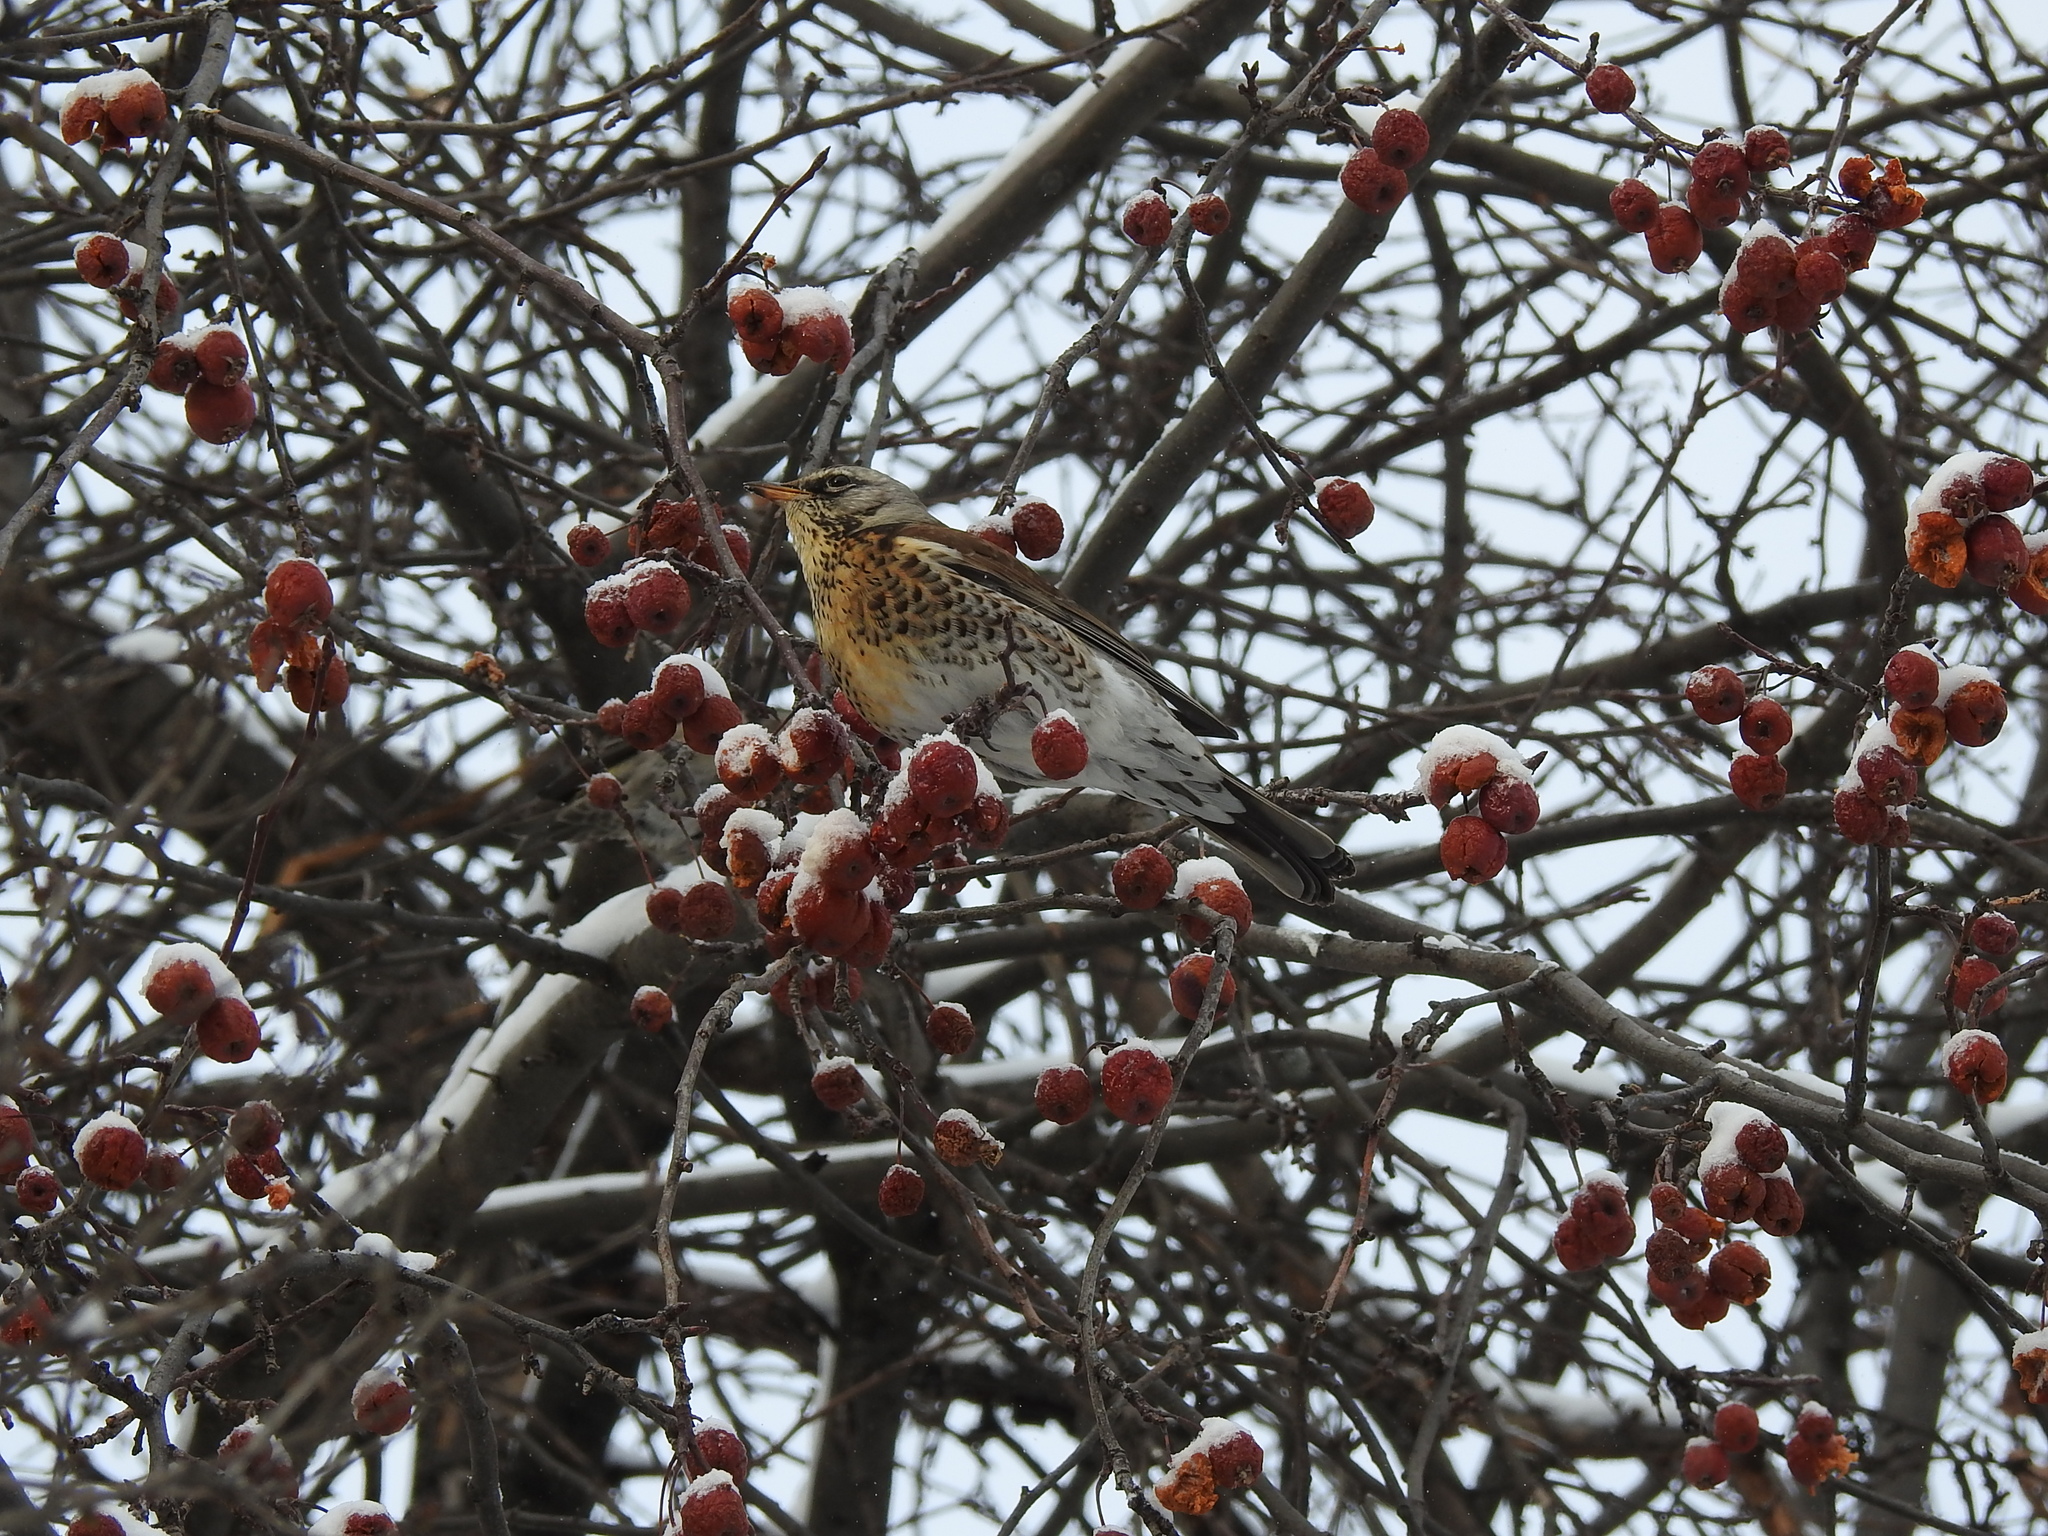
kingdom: Animalia
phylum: Chordata
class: Aves
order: Passeriformes
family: Turdidae
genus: Turdus
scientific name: Turdus pilaris
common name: Fieldfare
